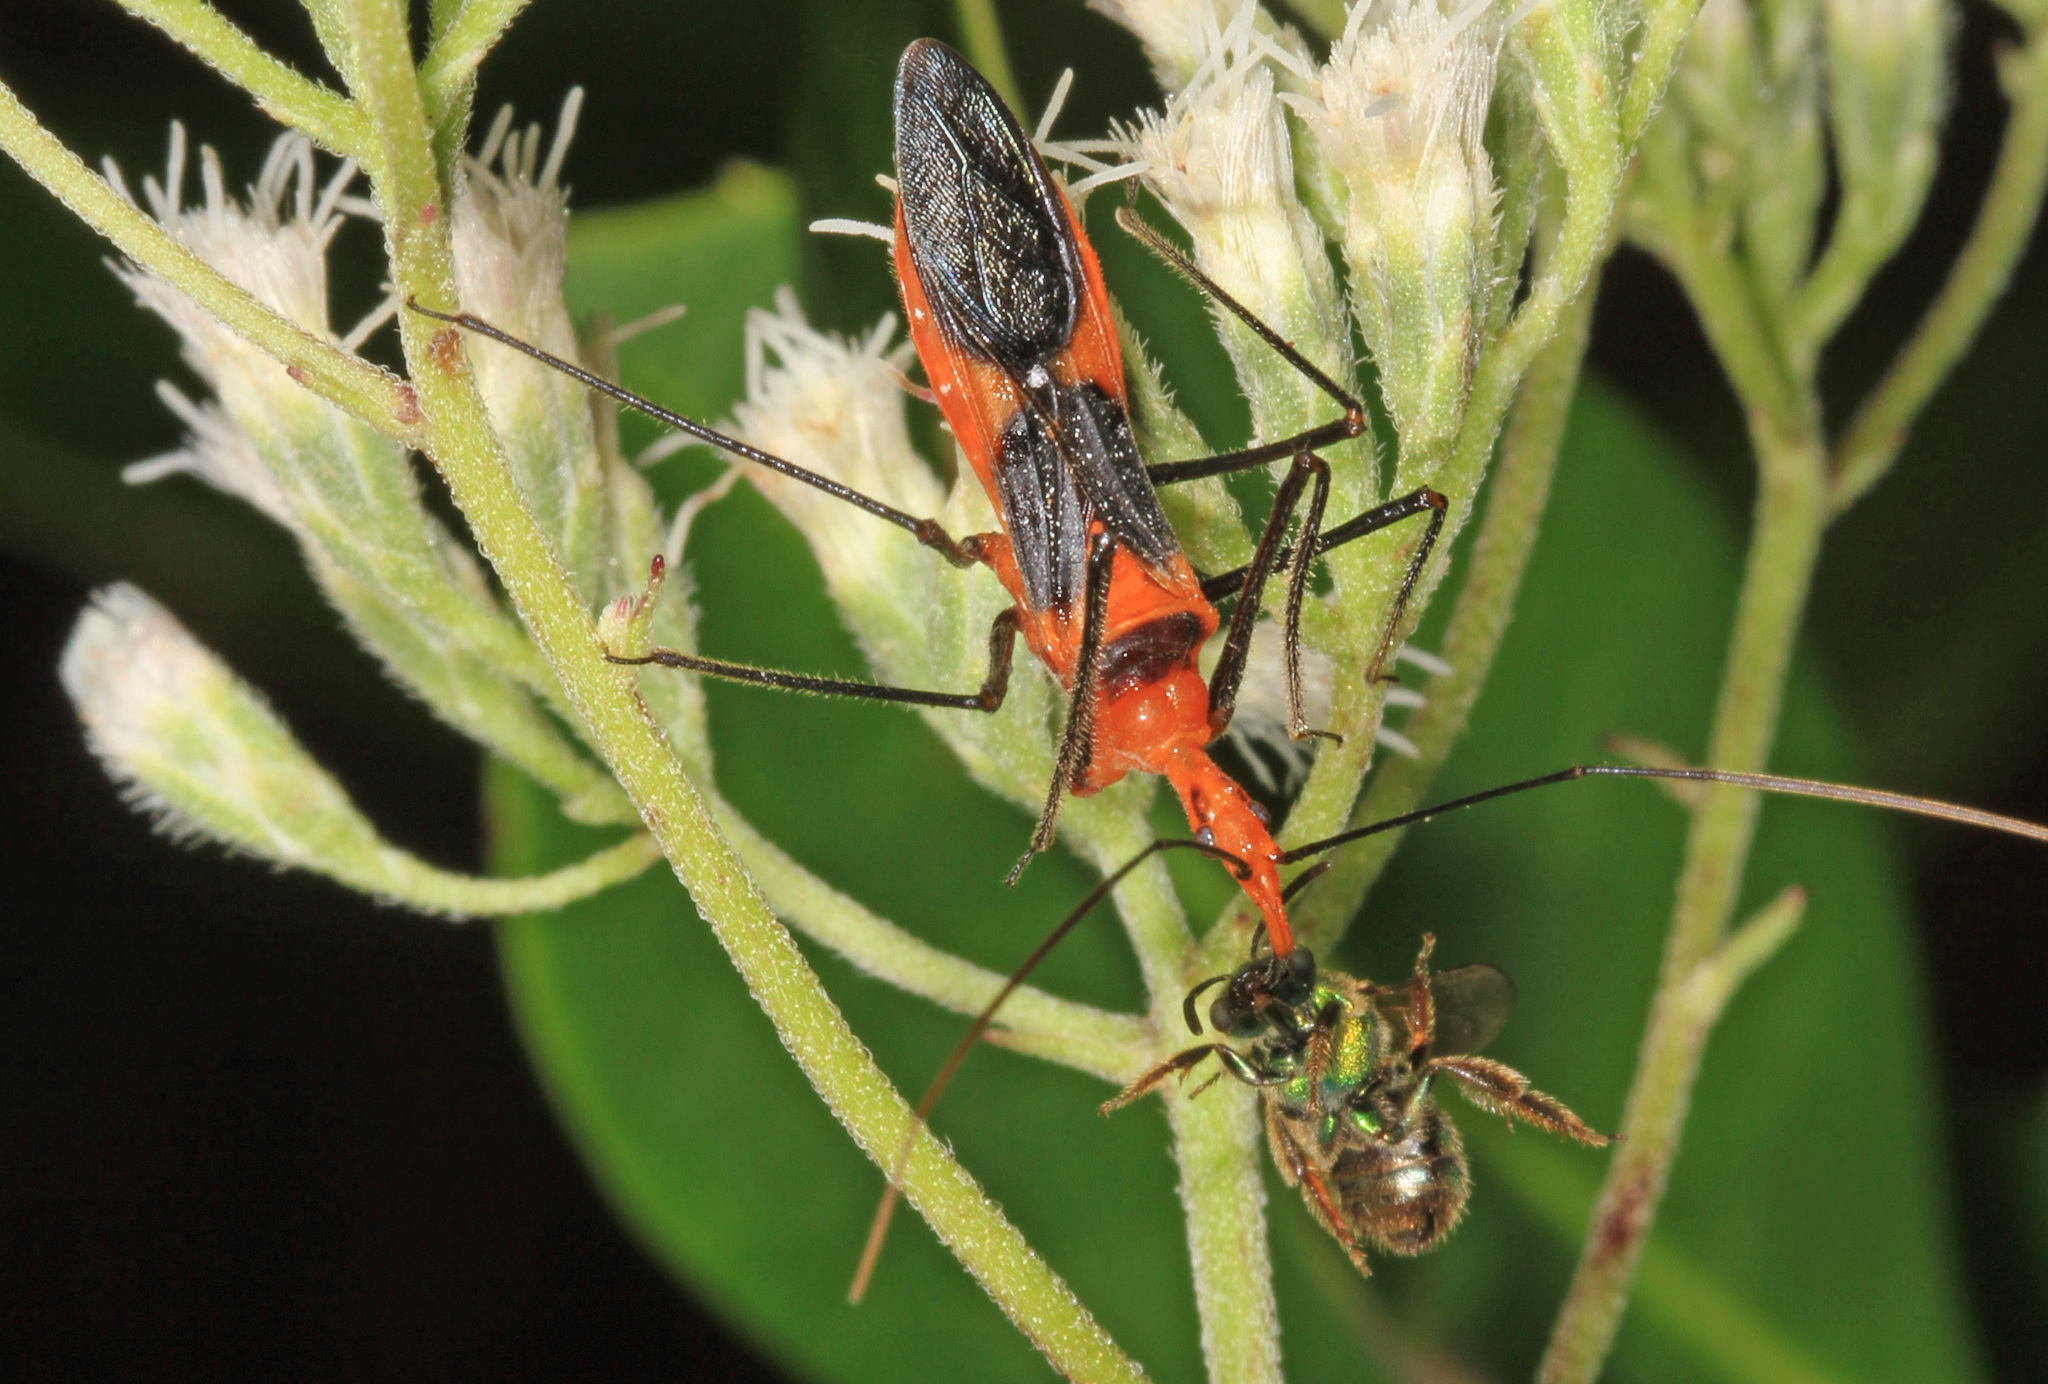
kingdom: Animalia
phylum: Arthropoda
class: Insecta
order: Hemiptera
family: Reduviidae
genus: Zelus
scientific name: Zelus longipes
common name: Milkweed assassin bug
